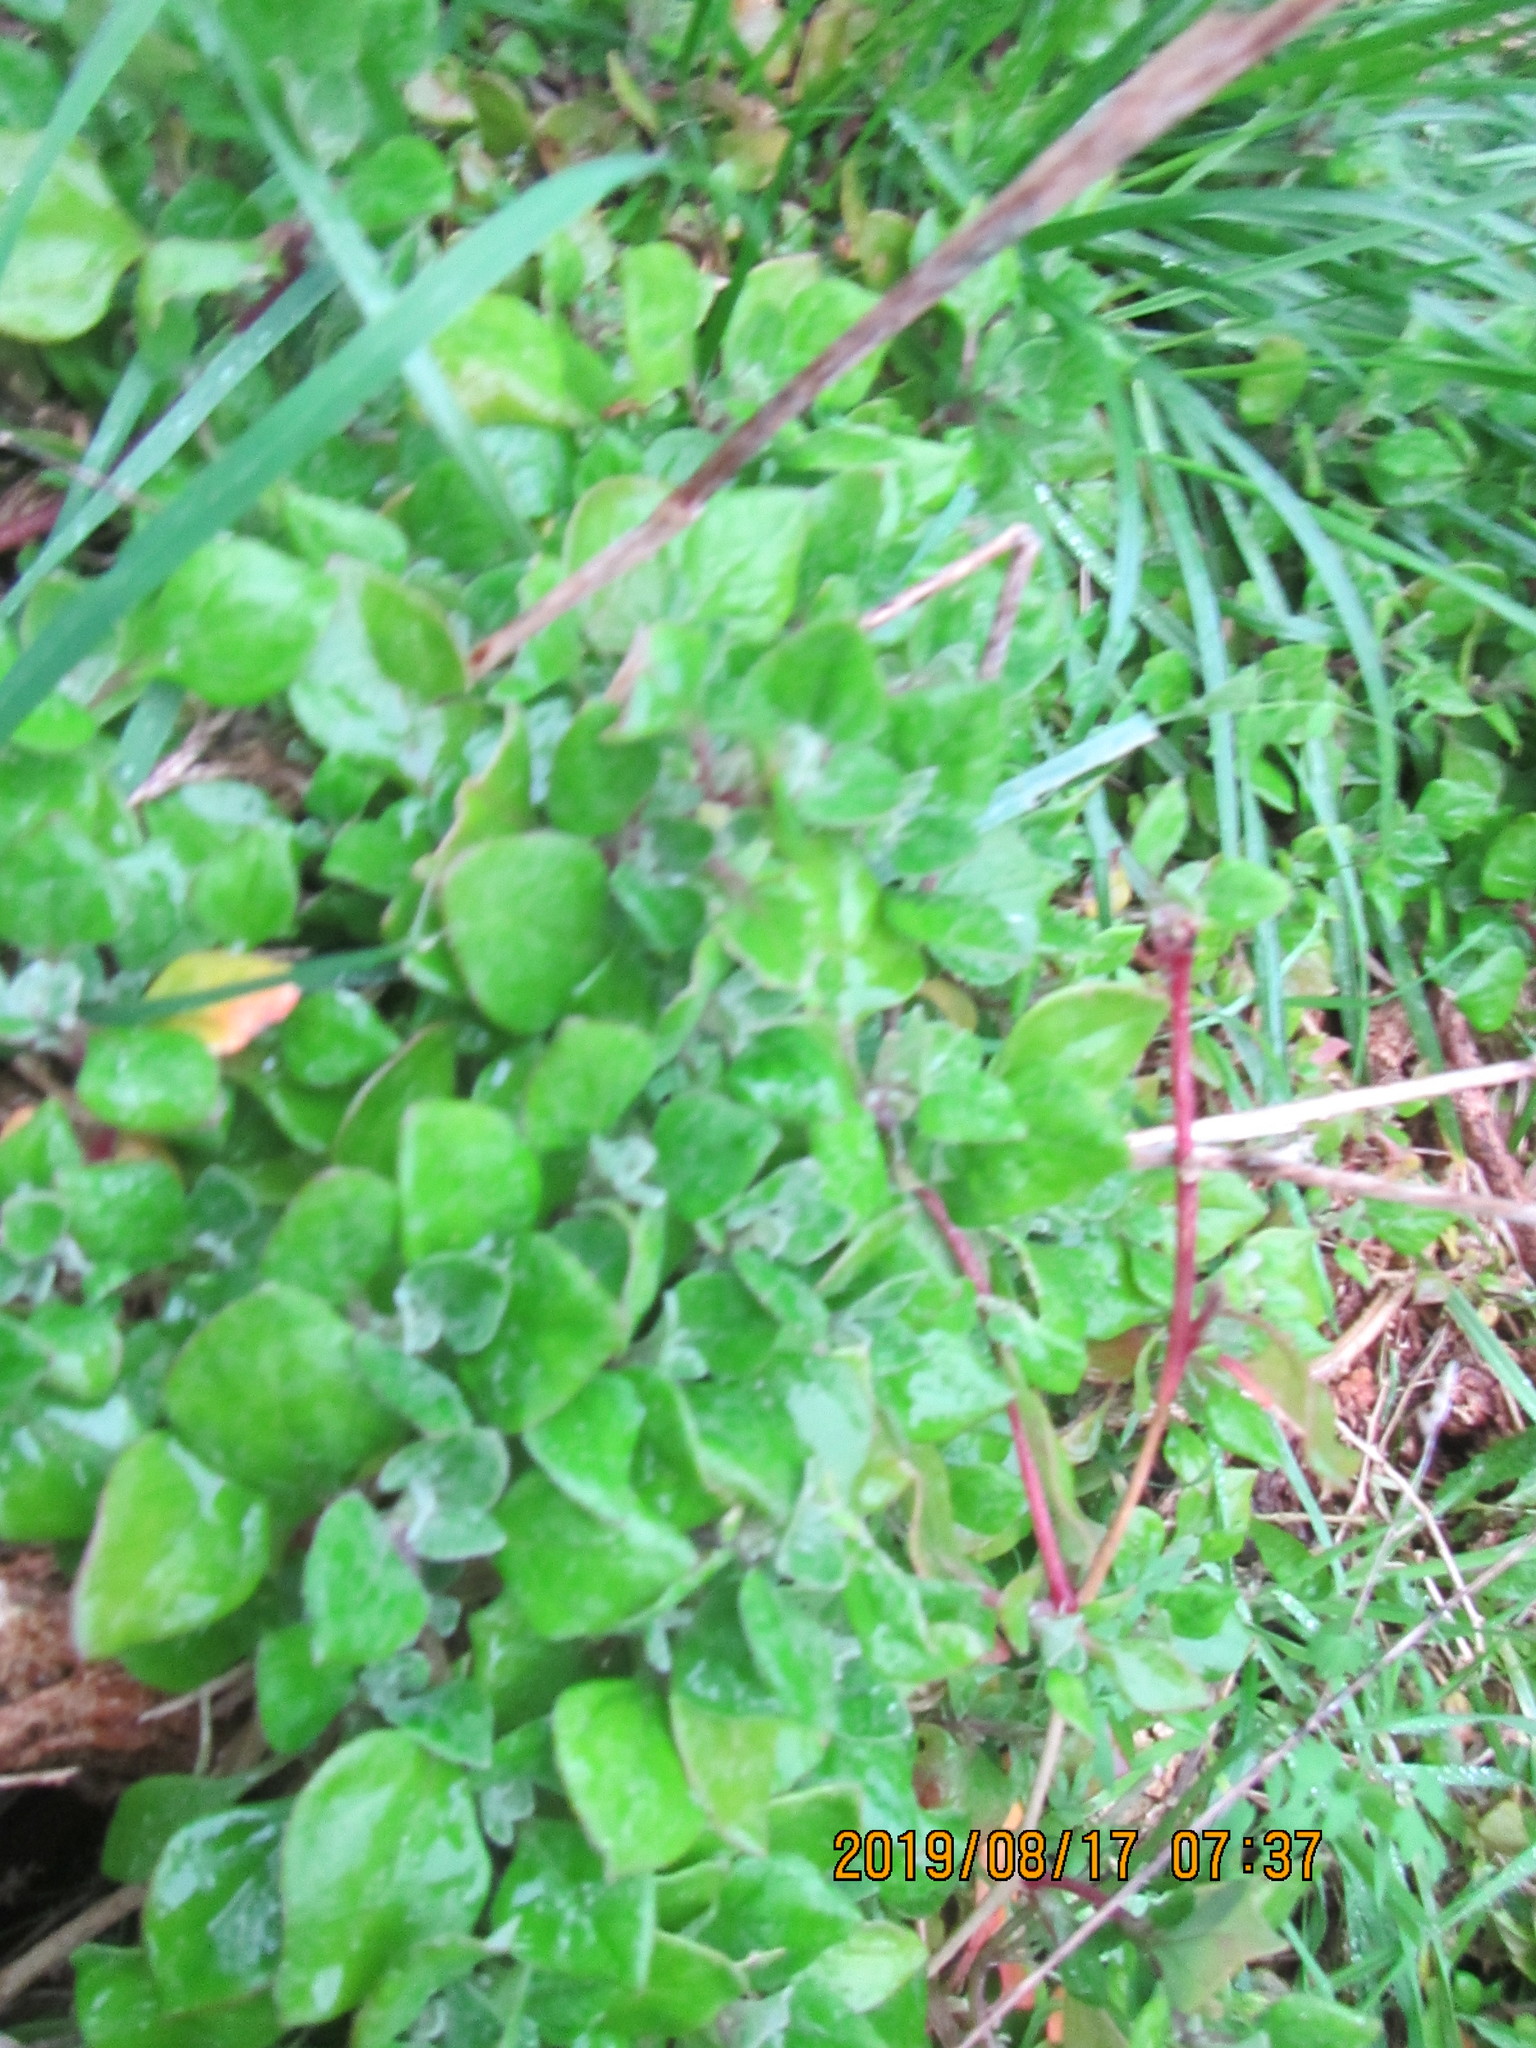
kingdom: Plantae
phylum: Tracheophyta
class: Magnoliopsida
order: Caryophyllales
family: Aizoaceae
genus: Tetragonia
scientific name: Tetragonia implexicoma
